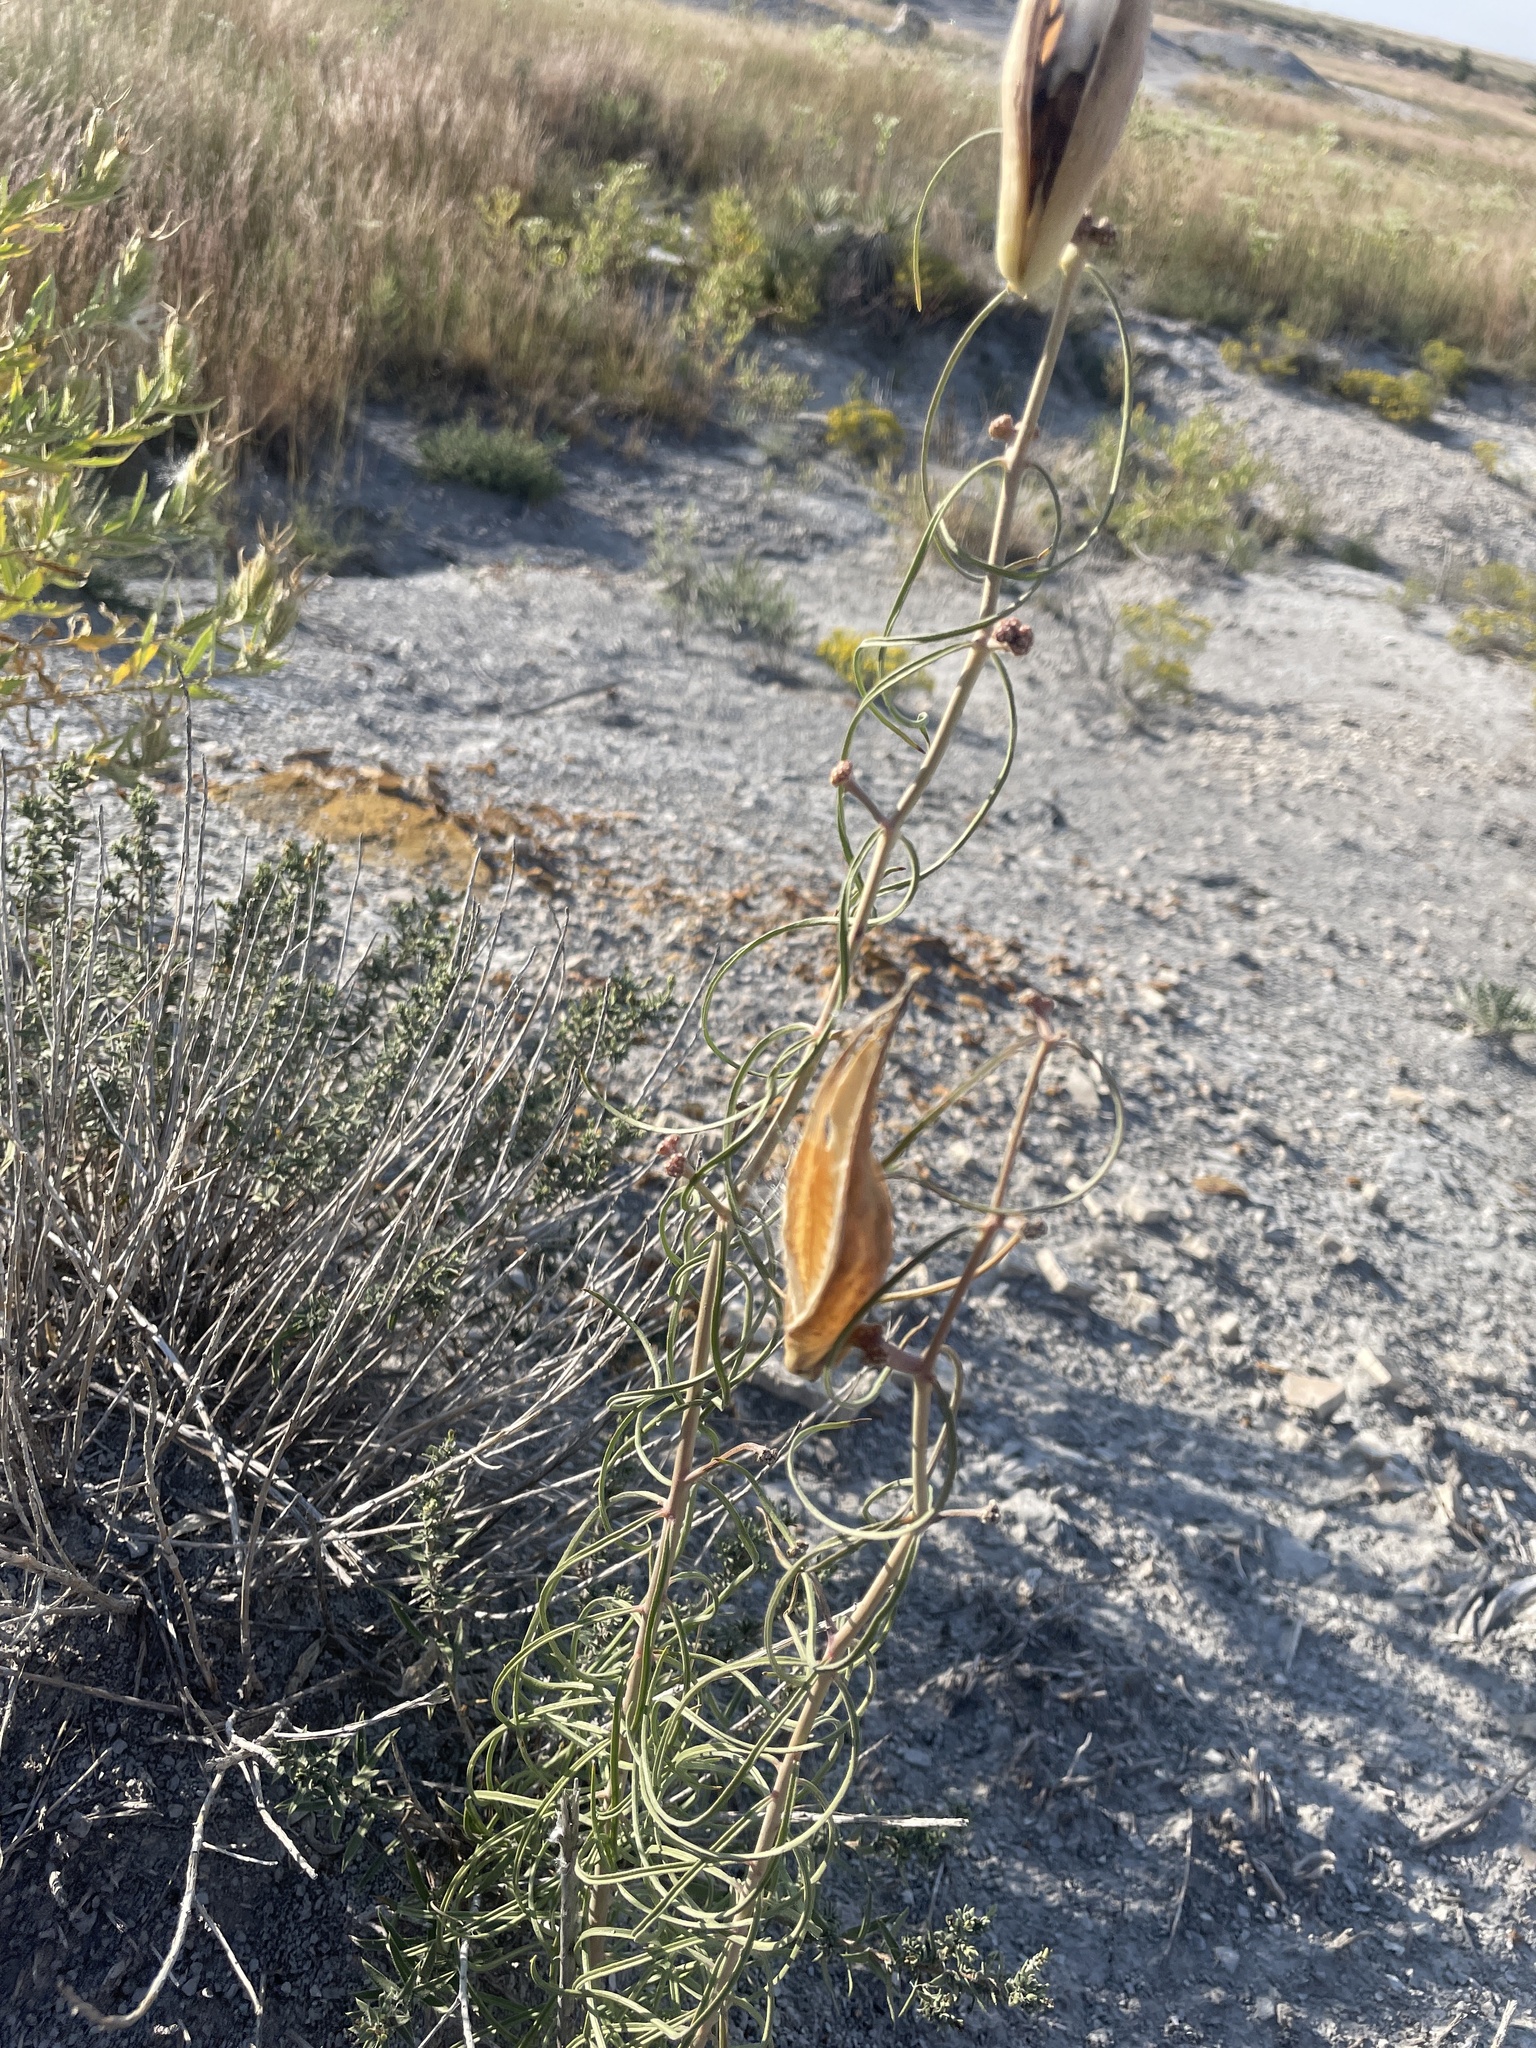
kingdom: Plantae
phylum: Tracheophyta
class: Magnoliopsida
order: Gentianales
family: Apocynaceae
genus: Asclepias
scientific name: Asclepias engelmanniana
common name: Engelmann's milkweed
